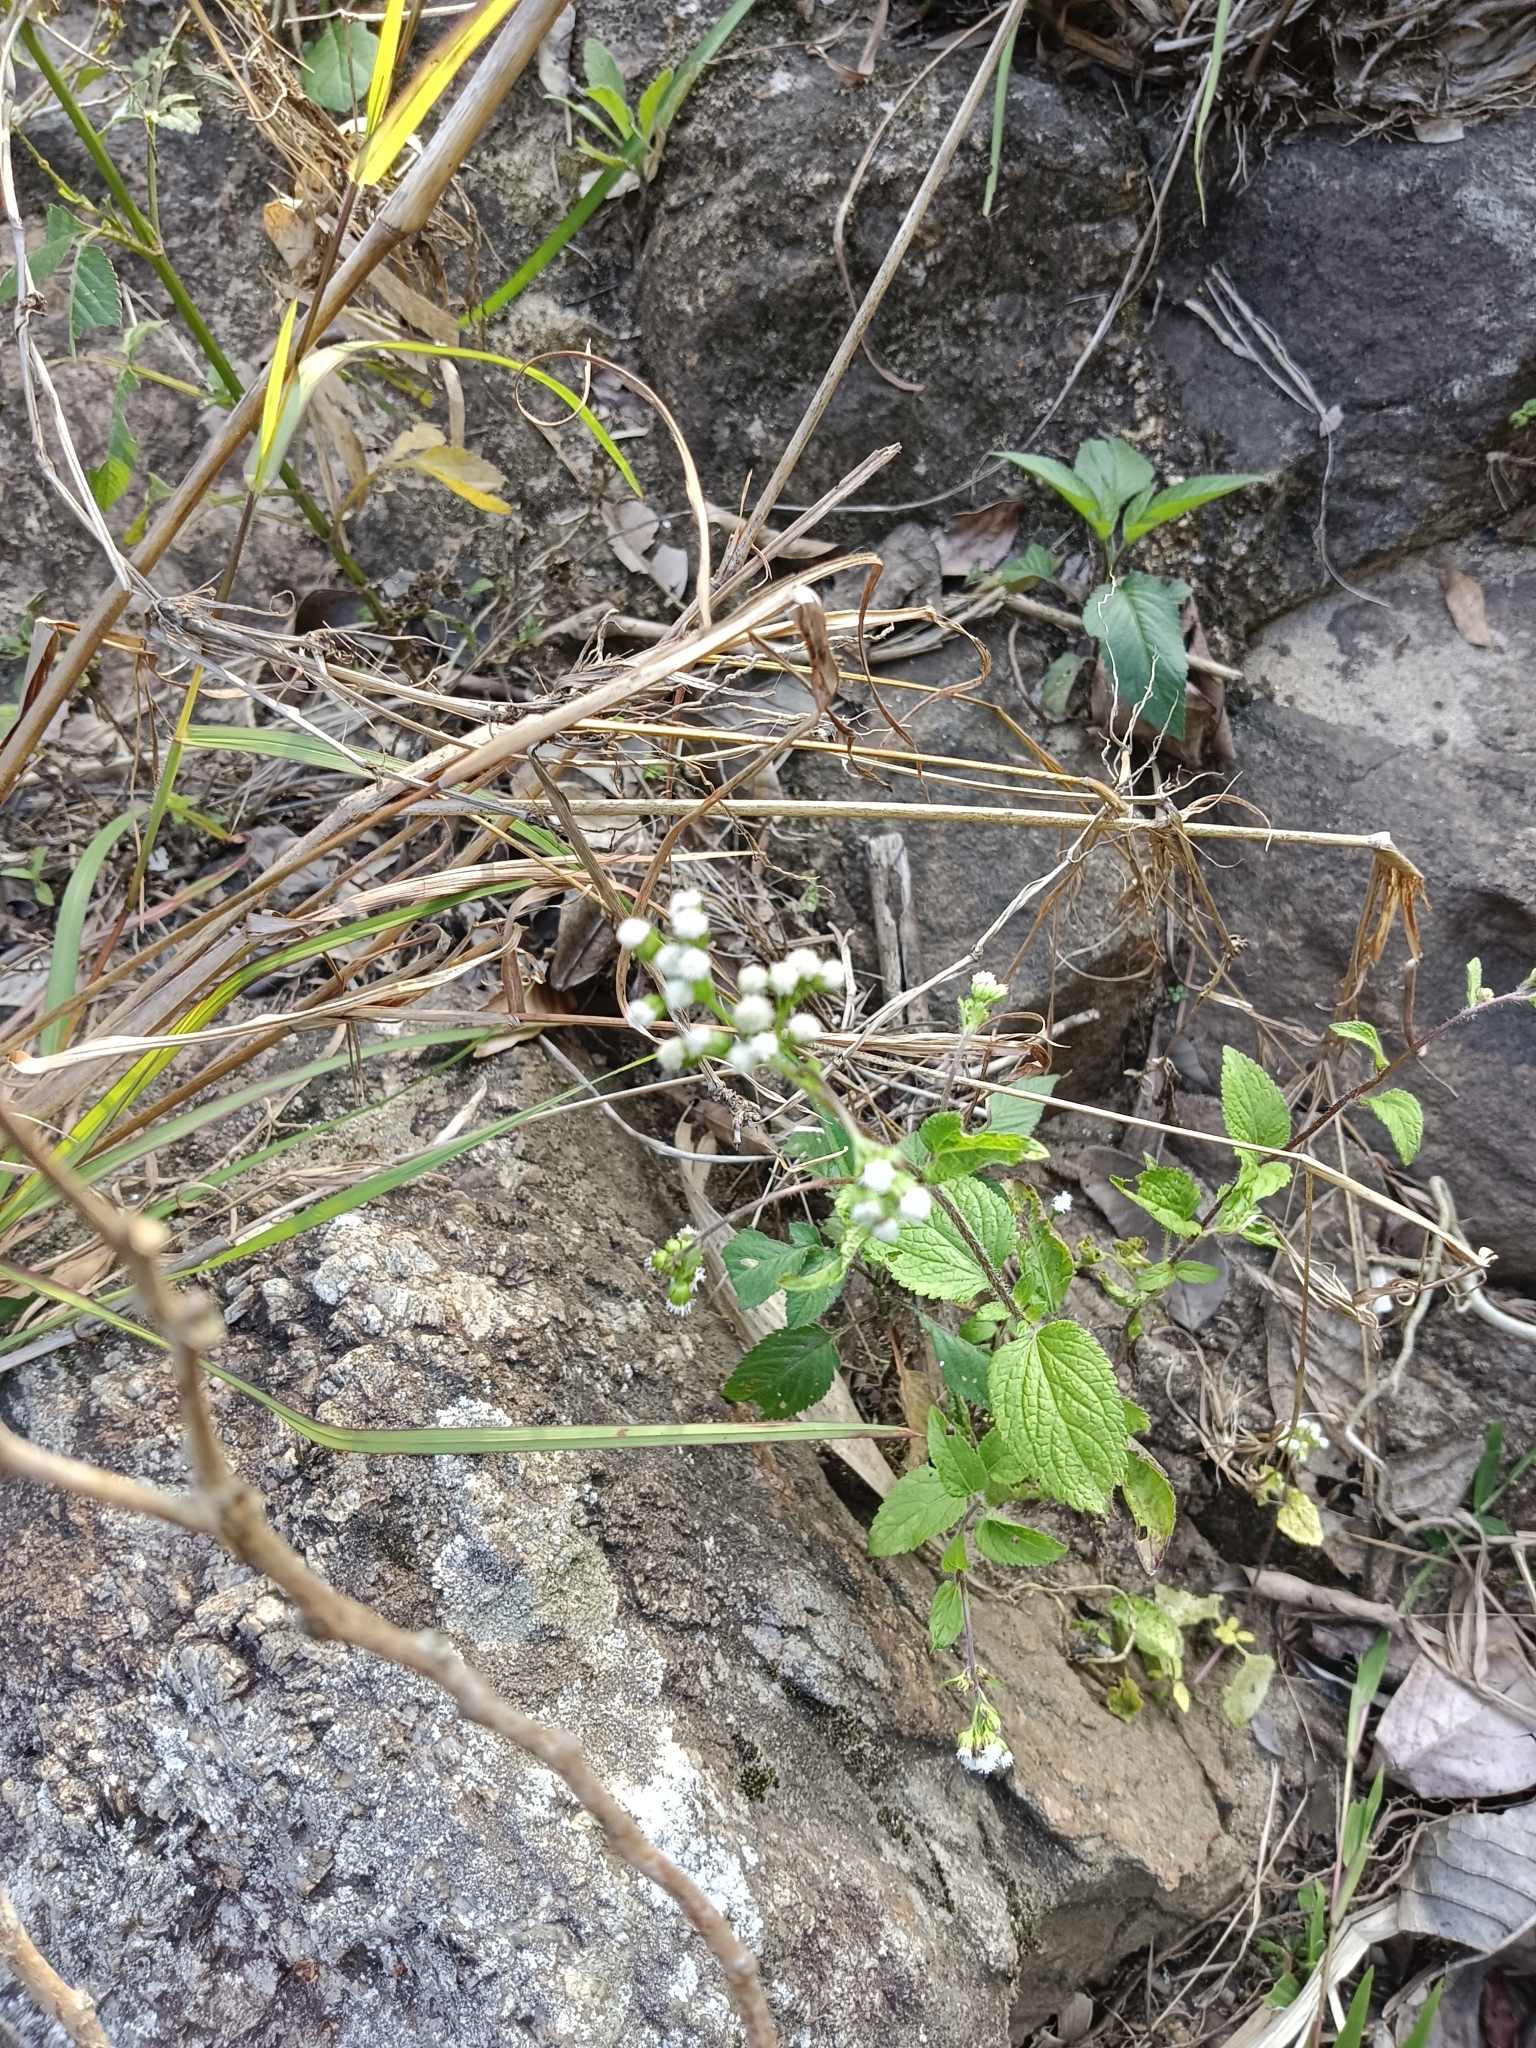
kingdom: Plantae
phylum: Tracheophyta
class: Magnoliopsida
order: Asterales
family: Asteraceae
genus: Ageratum
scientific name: Ageratum conyzoides
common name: Tropical whiteweed
